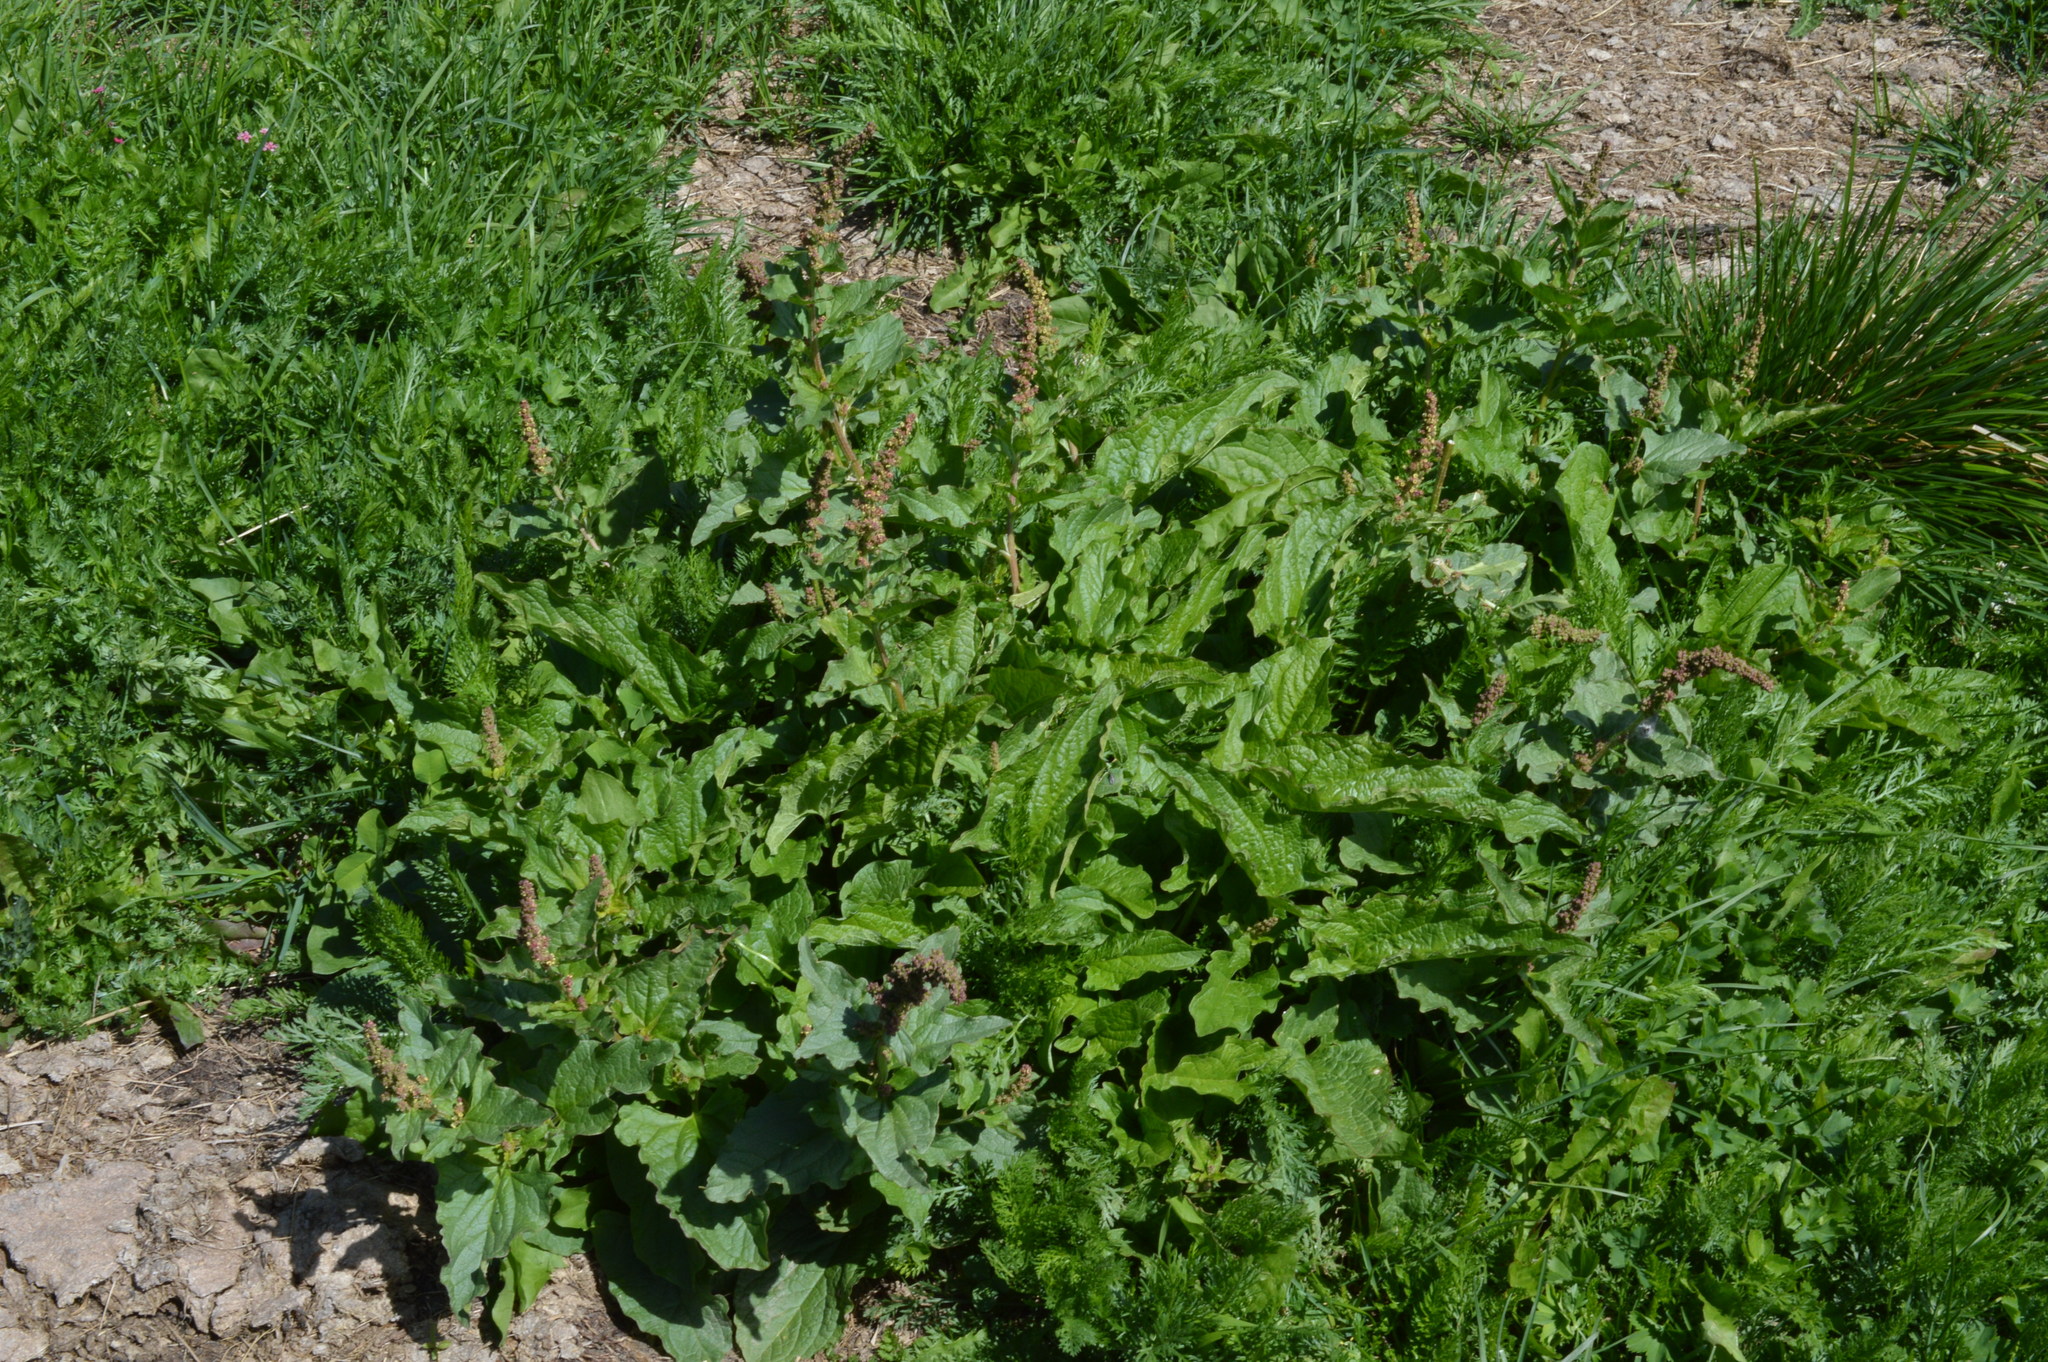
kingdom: Plantae
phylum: Tracheophyta
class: Magnoliopsida
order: Caryophyllales
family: Amaranthaceae
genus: Blitum
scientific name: Blitum bonus-henricus
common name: Good king henry
